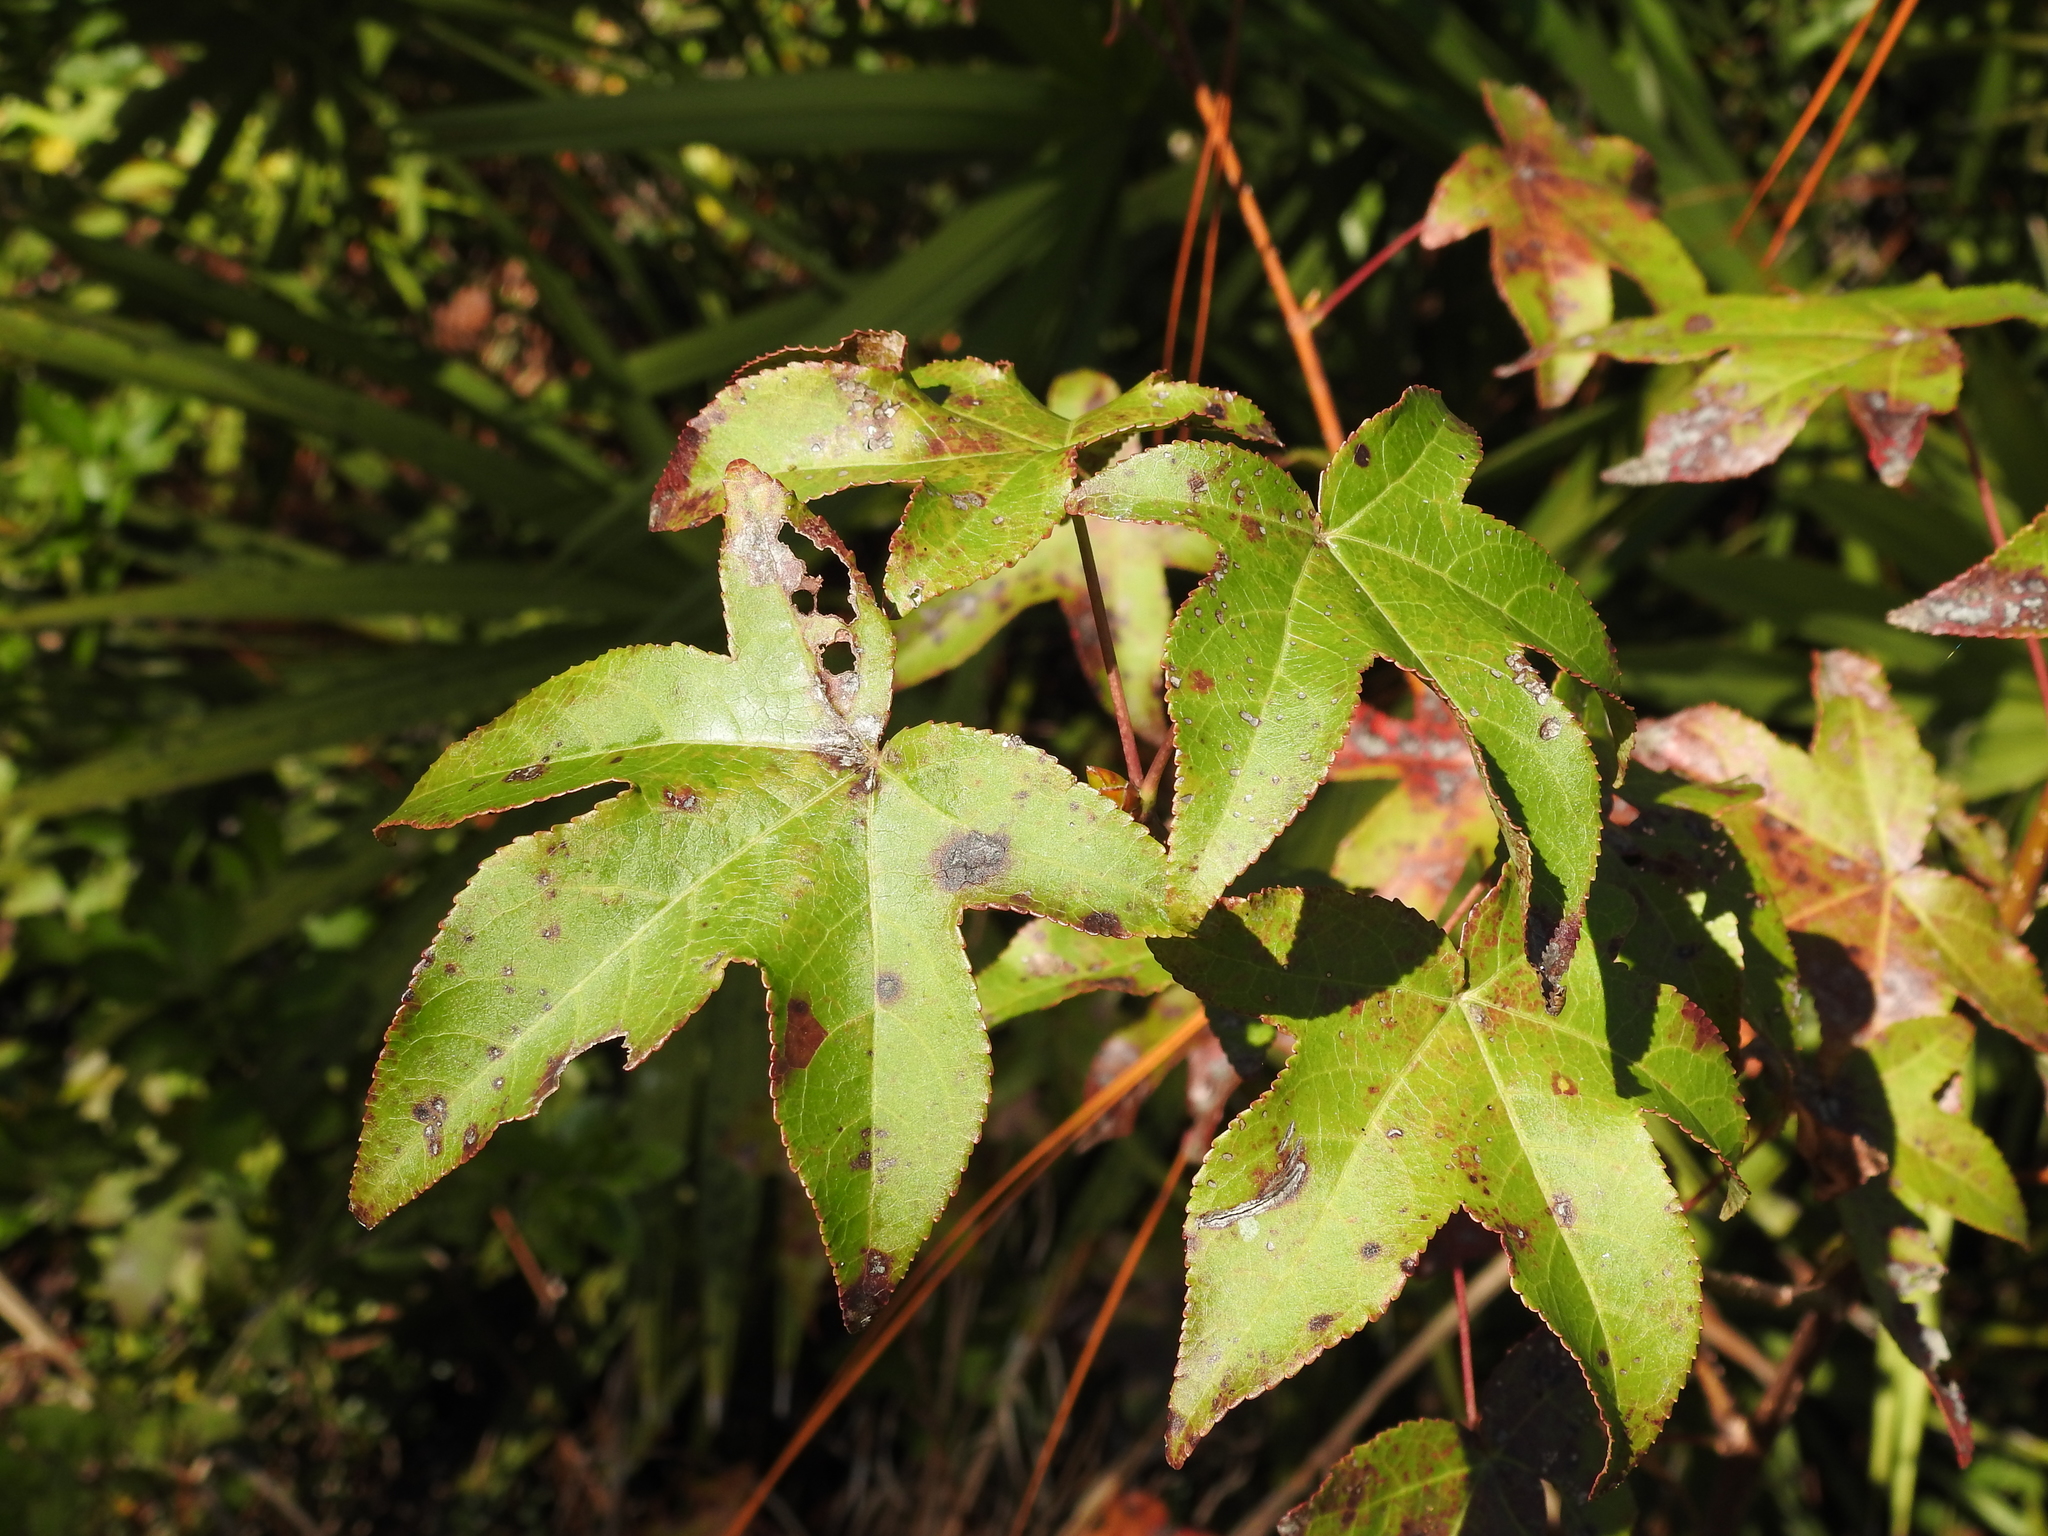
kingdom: Plantae
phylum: Tracheophyta
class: Magnoliopsida
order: Saxifragales
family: Altingiaceae
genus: Liquidambar
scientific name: Liquidambar styraciflua
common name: Sweet gum
